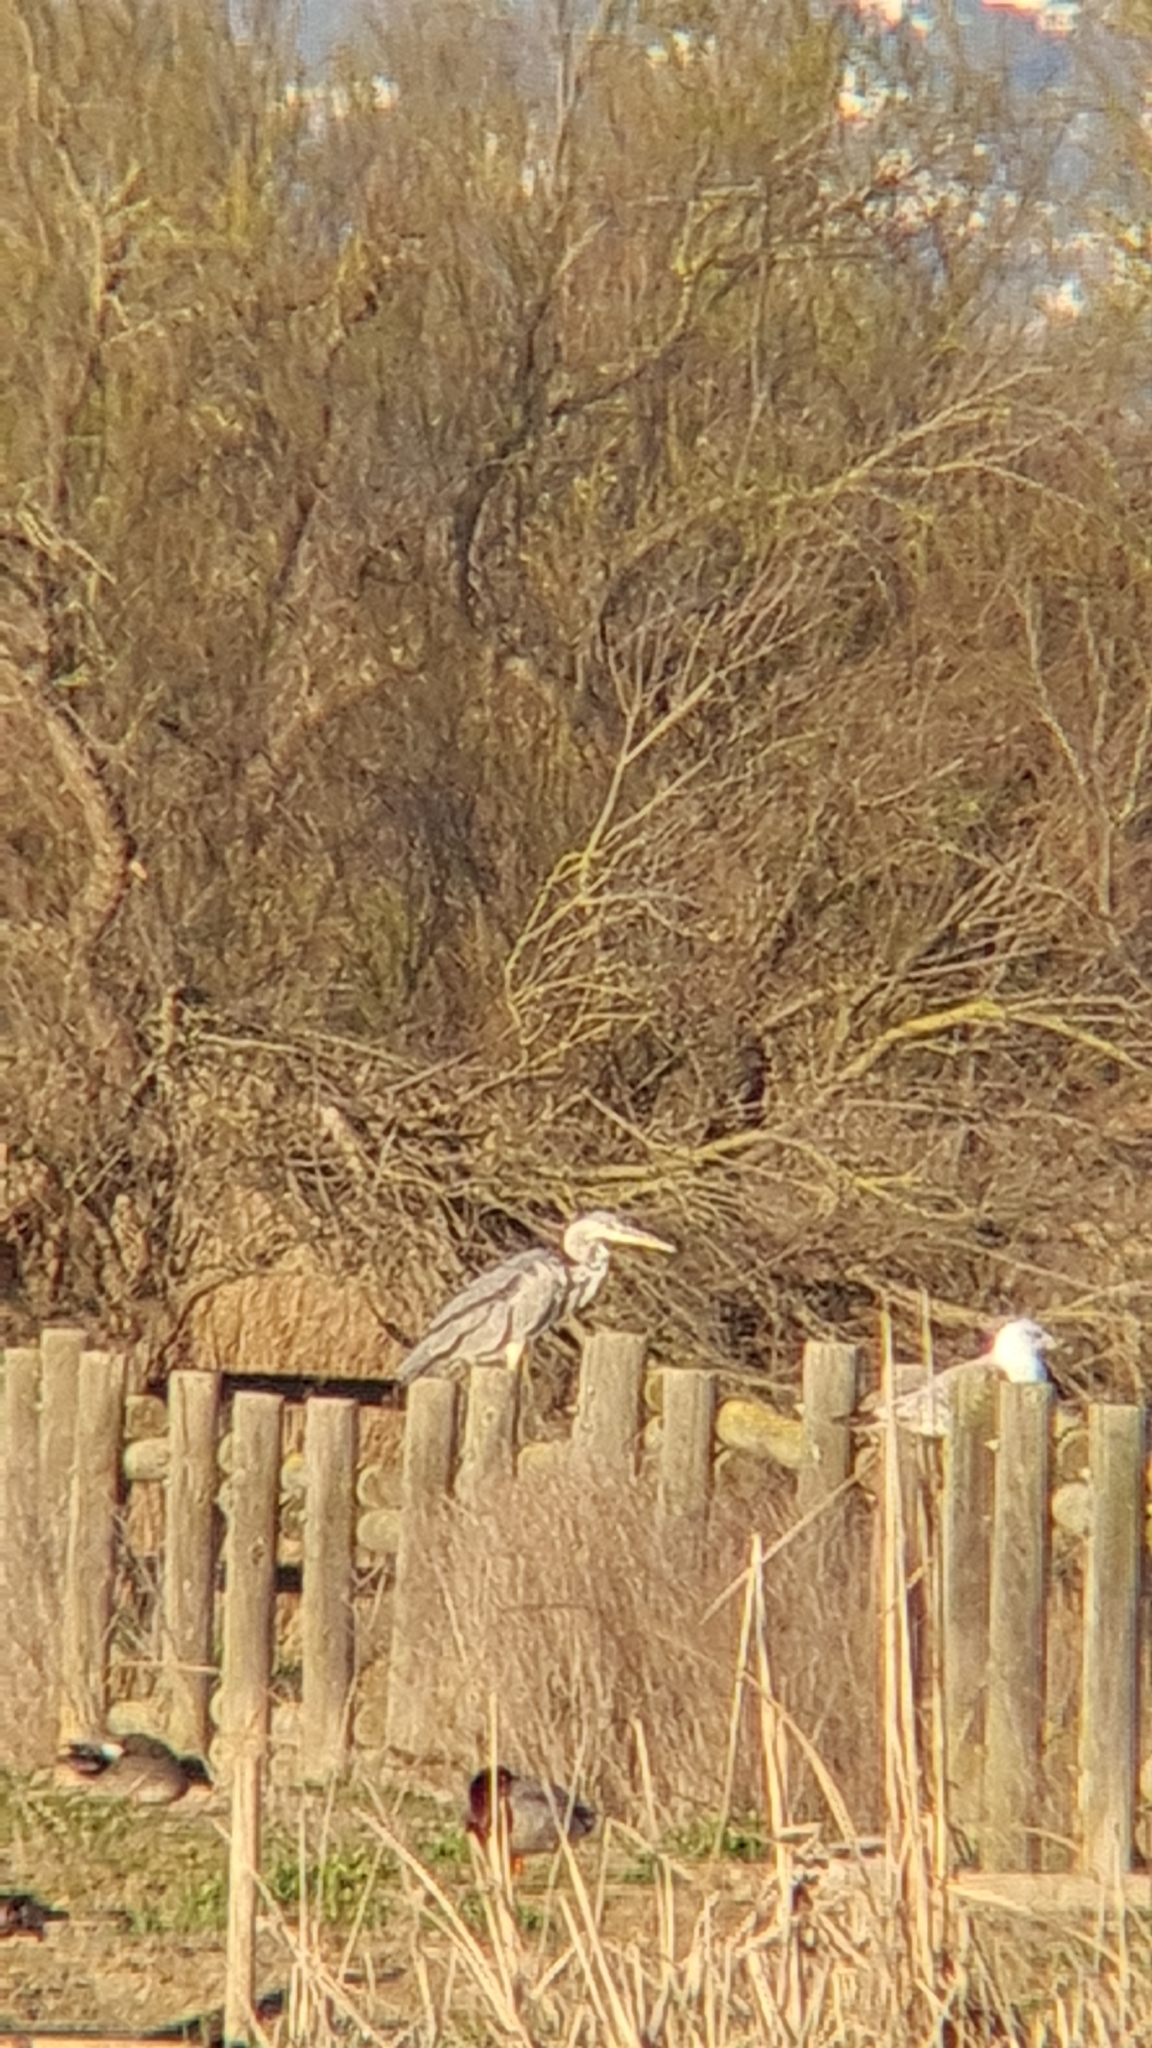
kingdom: Animalia
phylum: Chordata
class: Aves
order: Pelecaniformes
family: Ardeidae
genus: Ardea
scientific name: Ardea cinerea
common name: Grey heron
